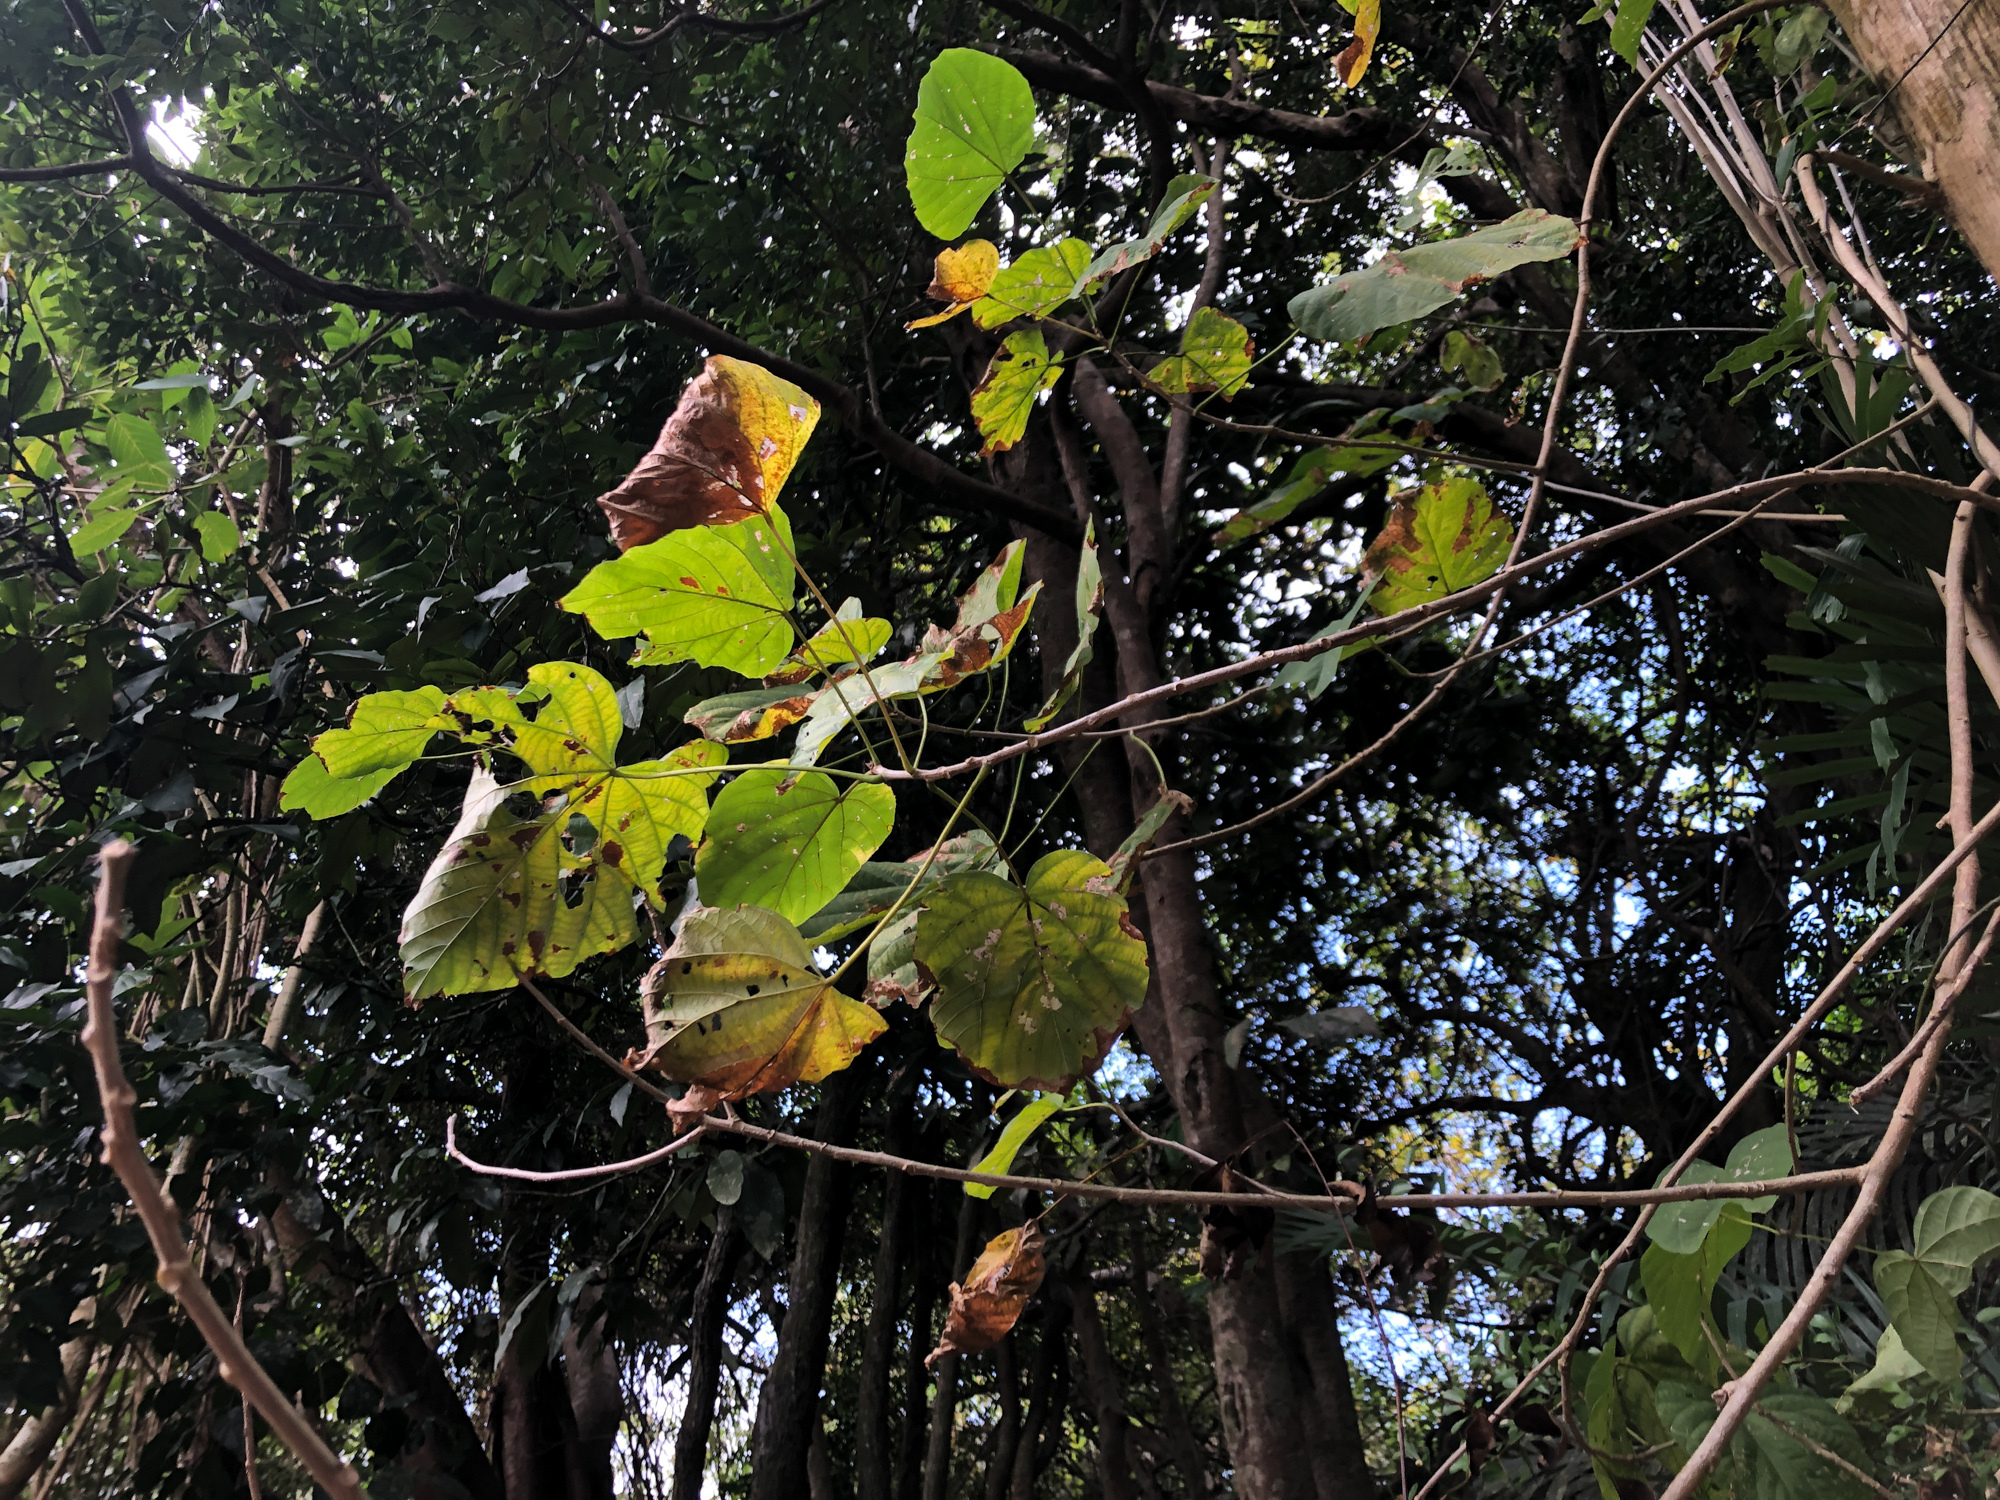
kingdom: Plantae
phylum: Tracheophyta
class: Magnoliopsida
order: Malvales
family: Malvaceae
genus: Kleinhovia
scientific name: Kleinhovia hospita
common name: Guest-tree
